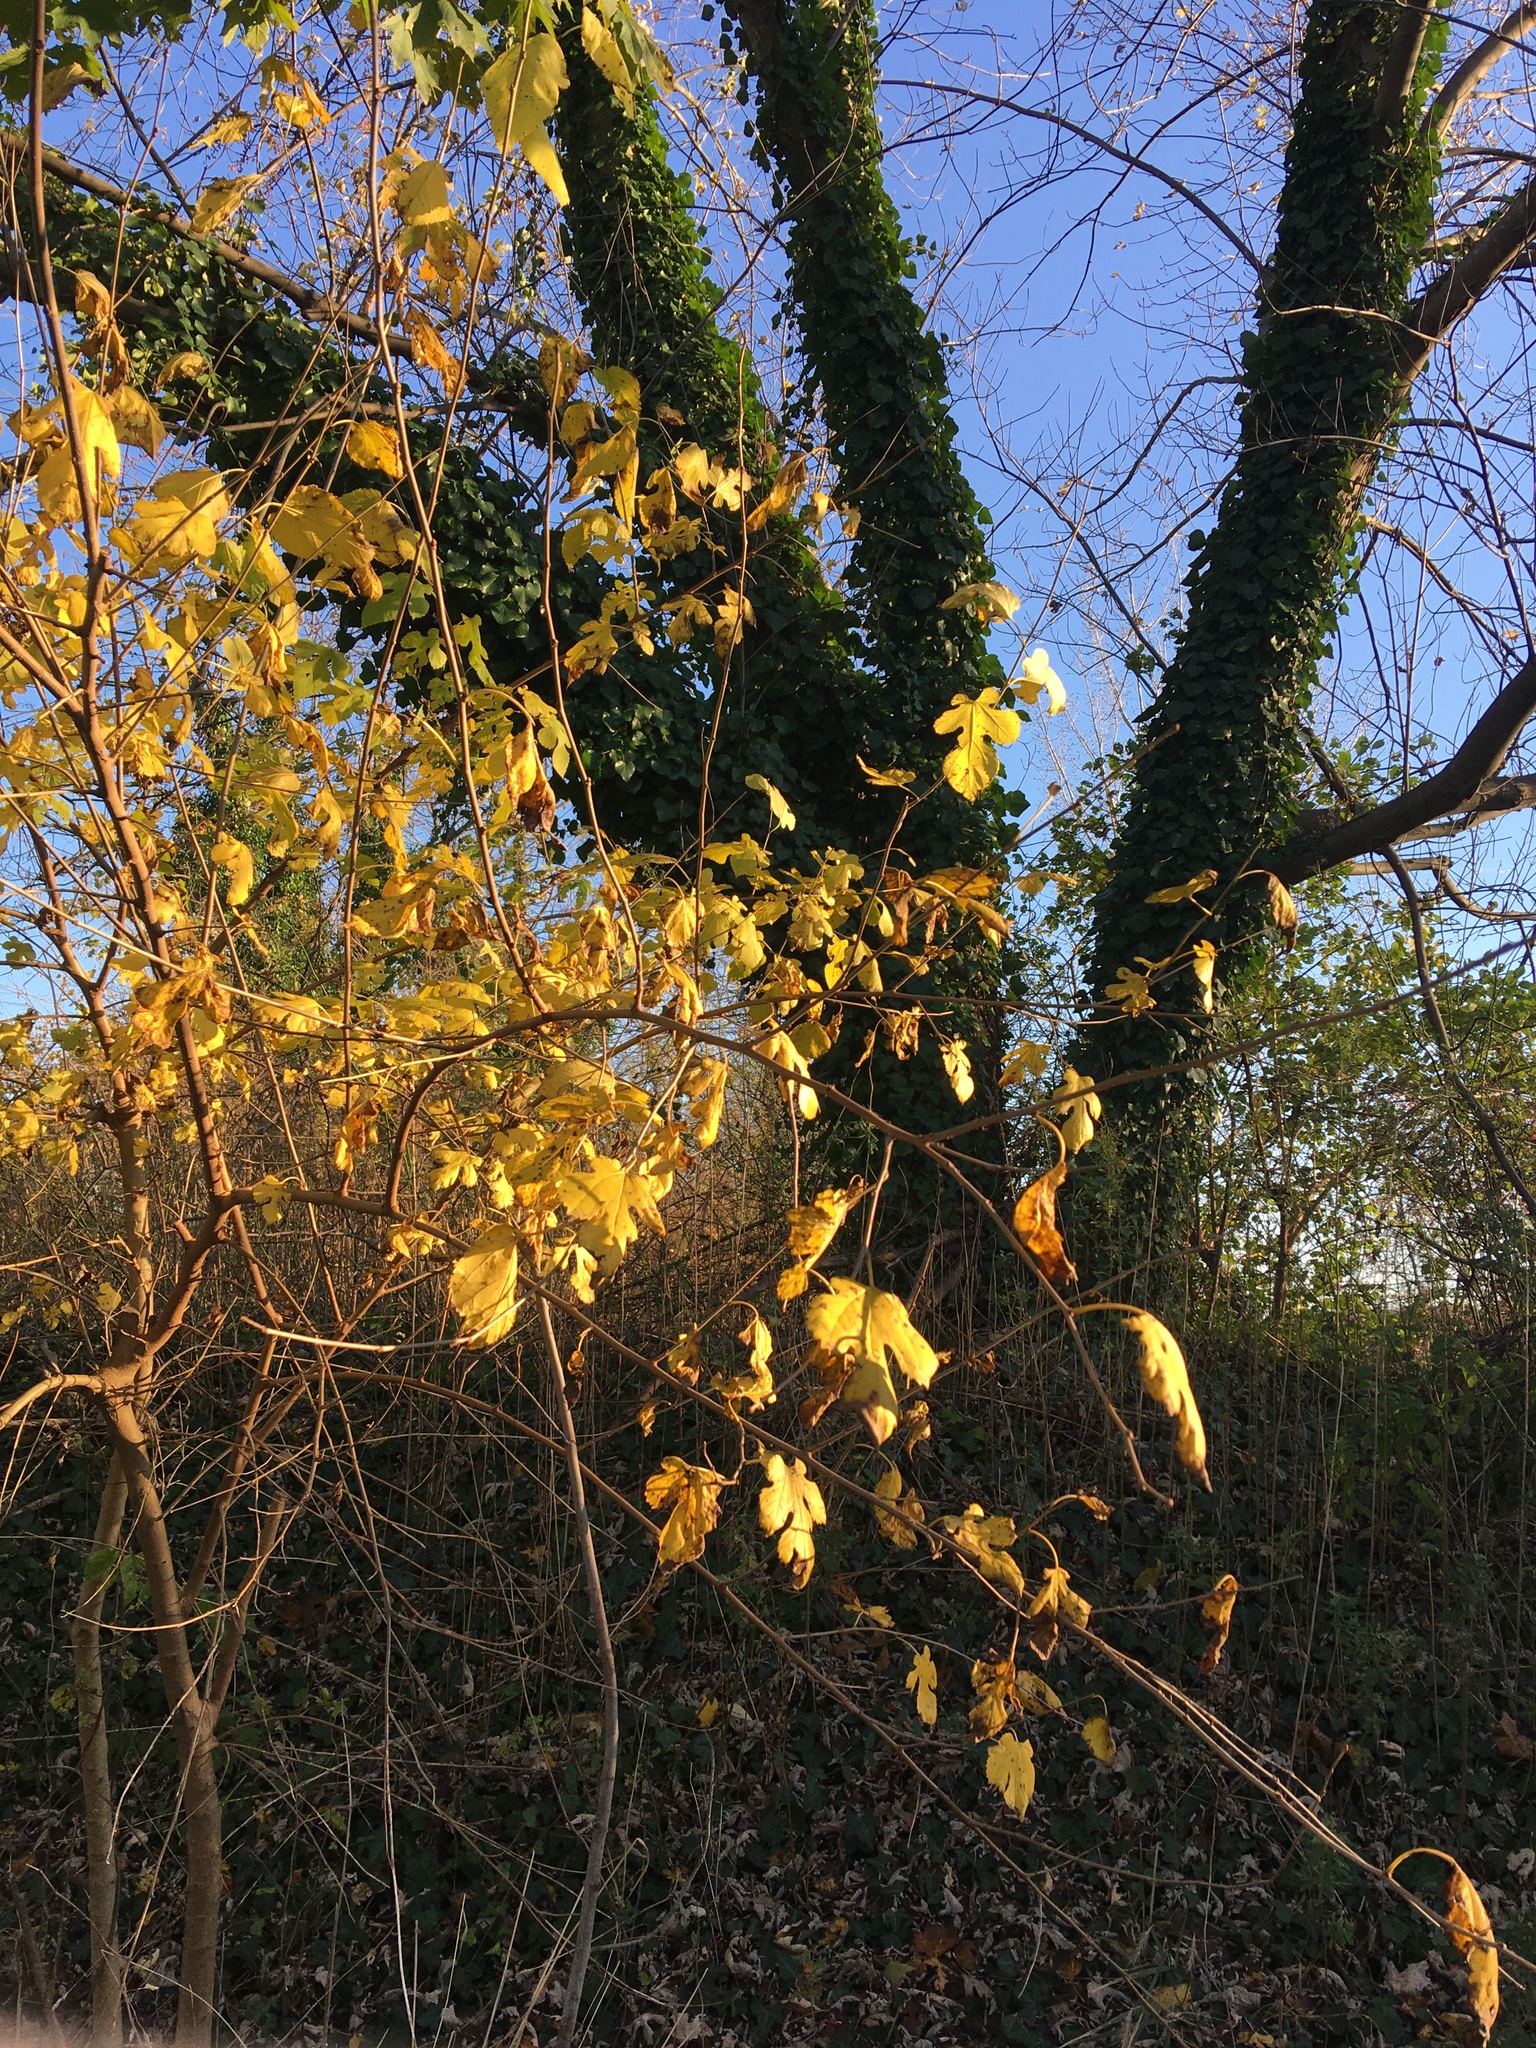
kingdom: Plantae
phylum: Tracheophyta
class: Magnoliopsida
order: Rosales
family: Moraceae
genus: Morus
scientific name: Morus alba
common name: White mulberry
